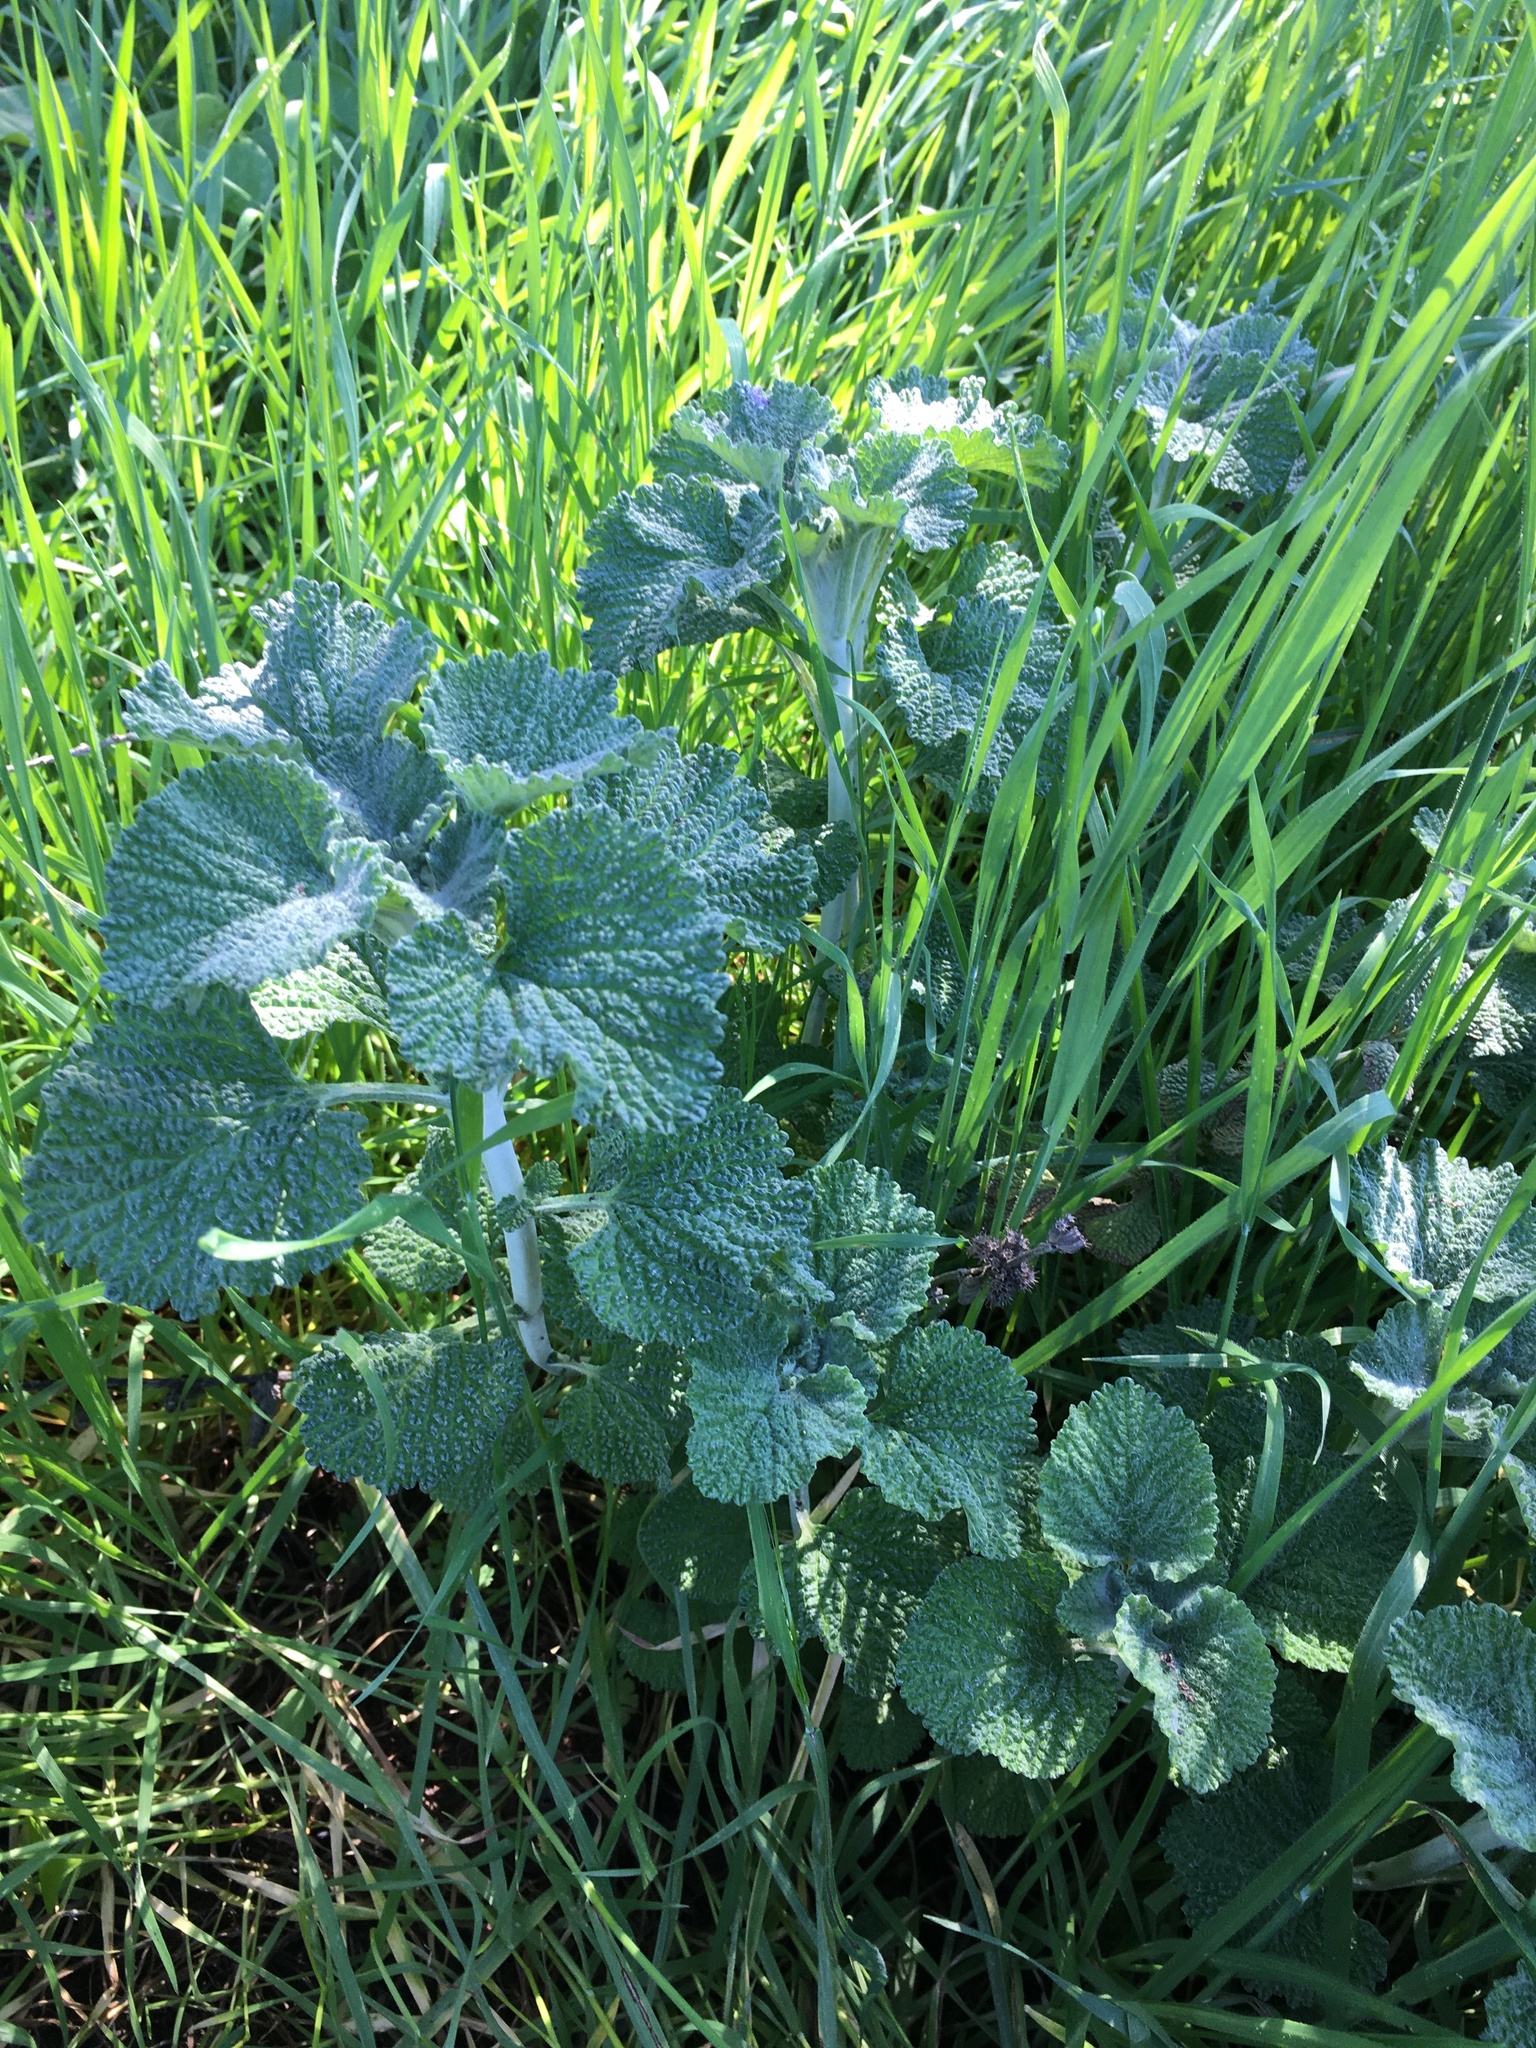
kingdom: Plantae
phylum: Tracheophyta
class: Magnoliopsida
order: Lamiales
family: Lamiaceae
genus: Marrubium
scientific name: Marrubium vulgare
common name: Horehound
